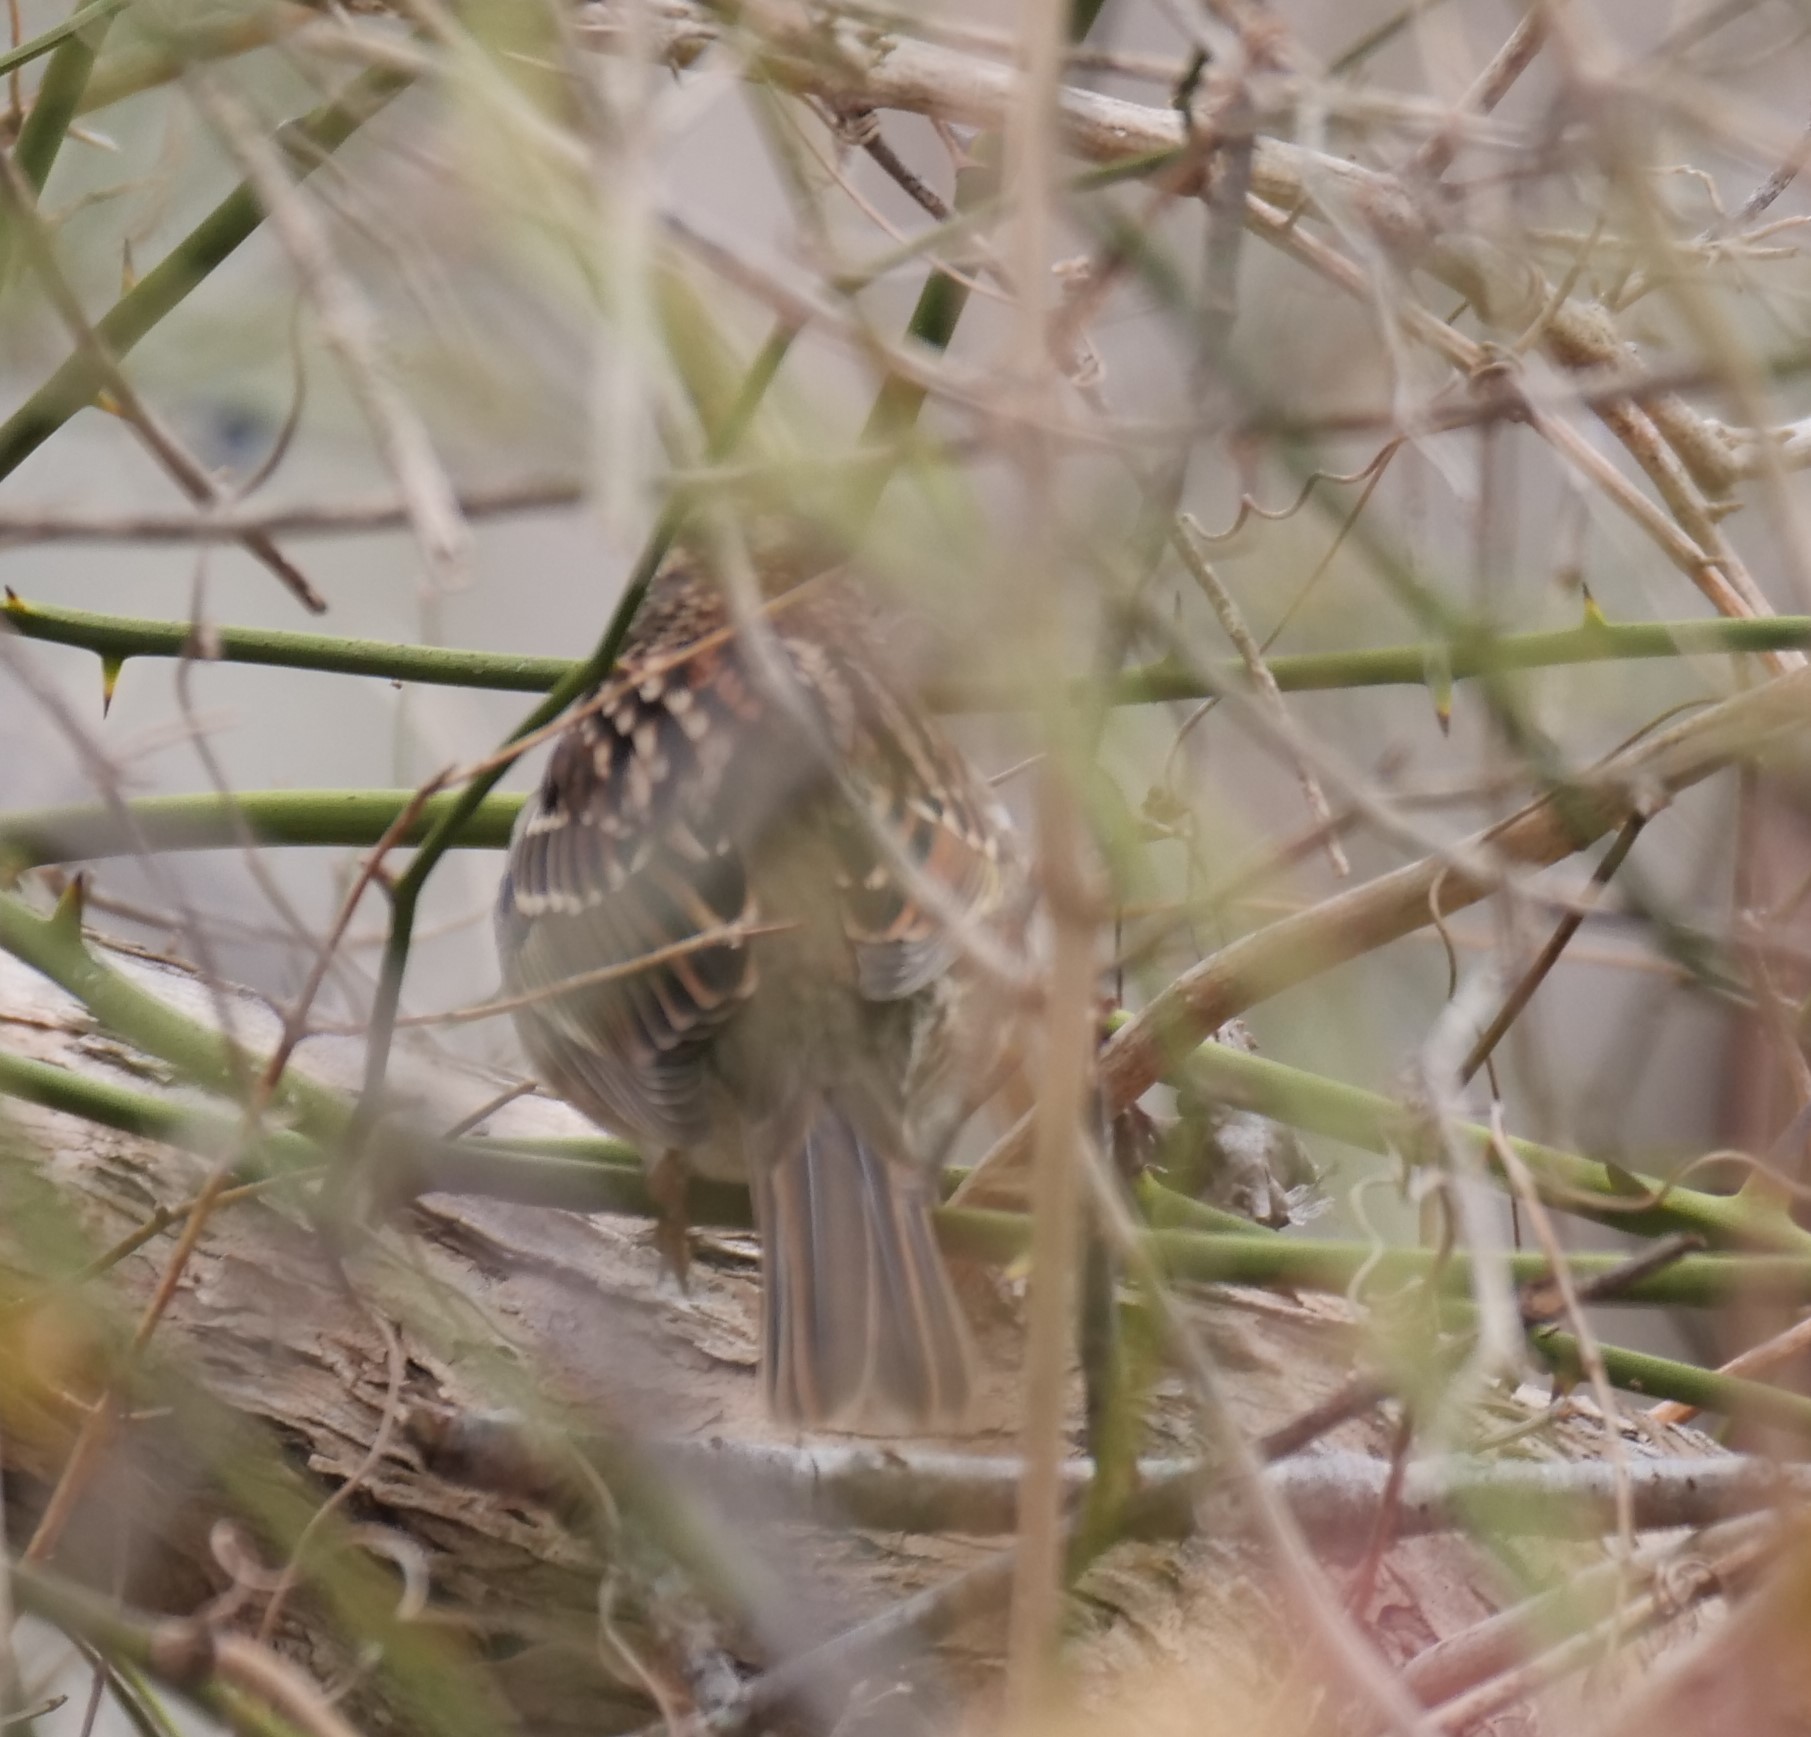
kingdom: Animalia
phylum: Chordata
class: Aves
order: Passeriformes
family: Passerellidae
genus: Zonotrichia
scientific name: Zonotrichia albicollis
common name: White-throated sparrow
